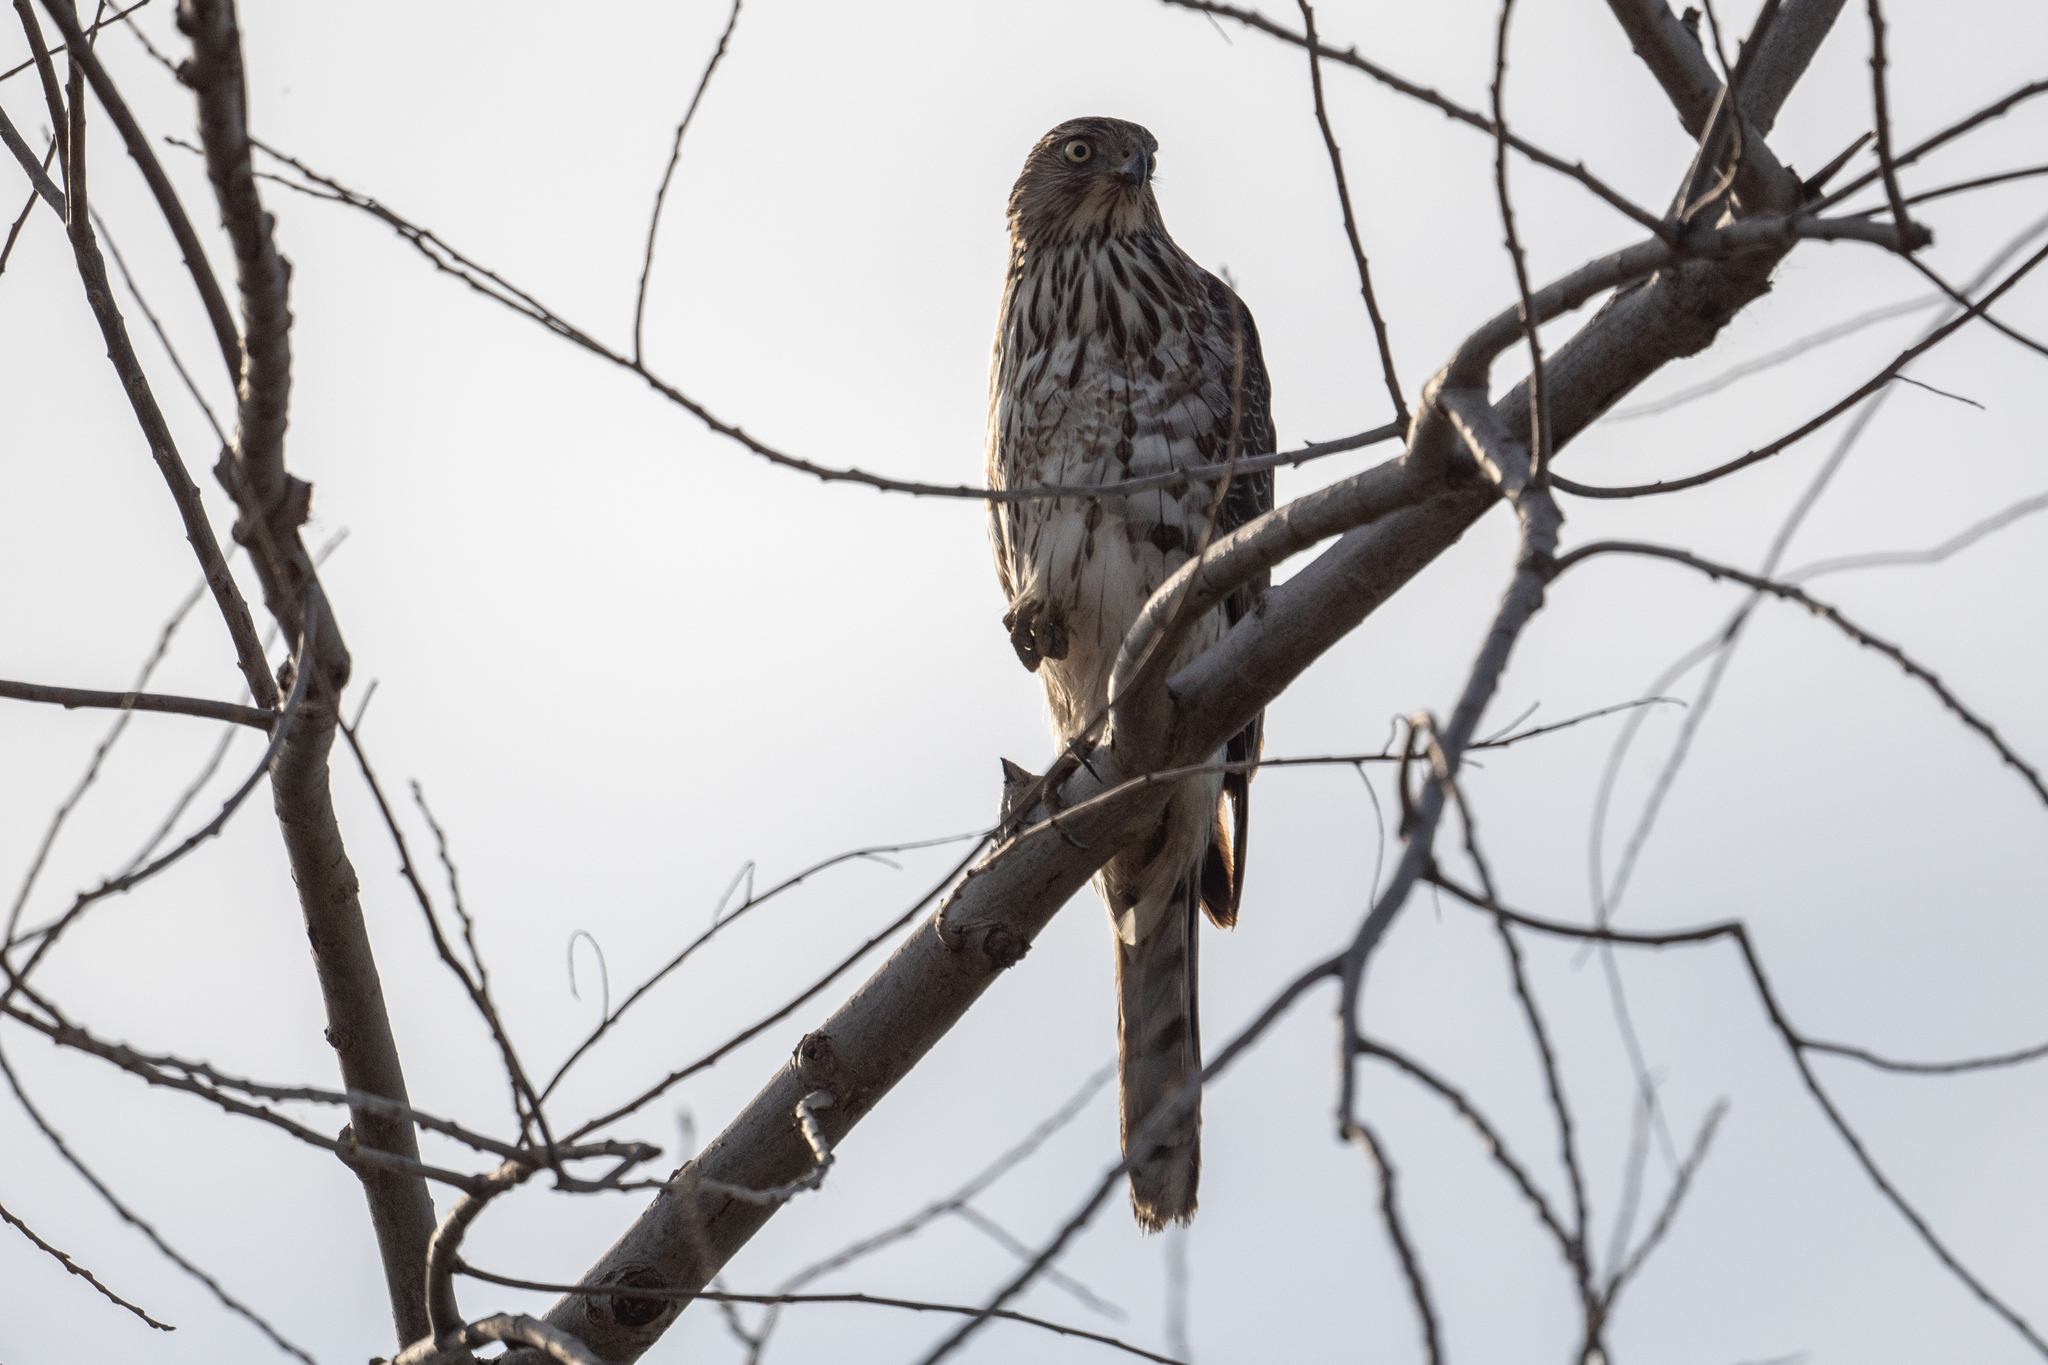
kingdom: Animalia
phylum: Chordata
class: Aves
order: Accipitriformes
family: Accipitridae
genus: Accipiter
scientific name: Accipiter cooperii
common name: Cooper's hawk
